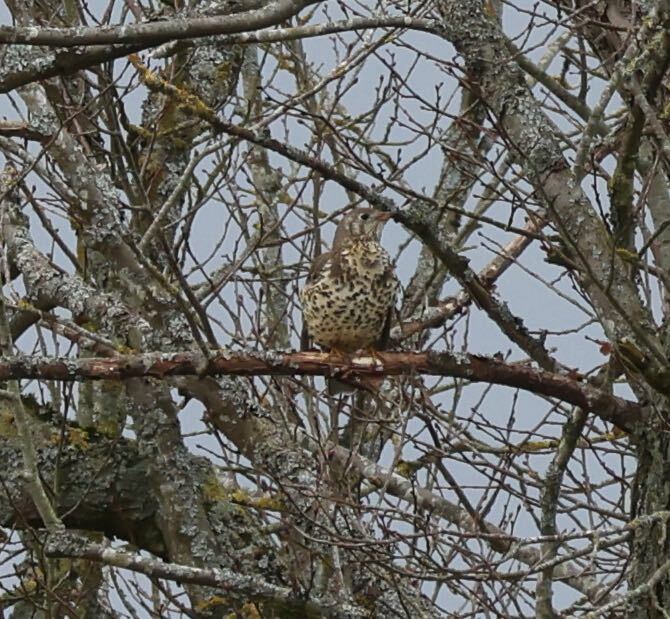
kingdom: Animalia
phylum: Chordata
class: Aves
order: Passeriformes
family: Turdidae
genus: Turdus
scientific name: Turdus viscivorus
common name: Mistle thrush
